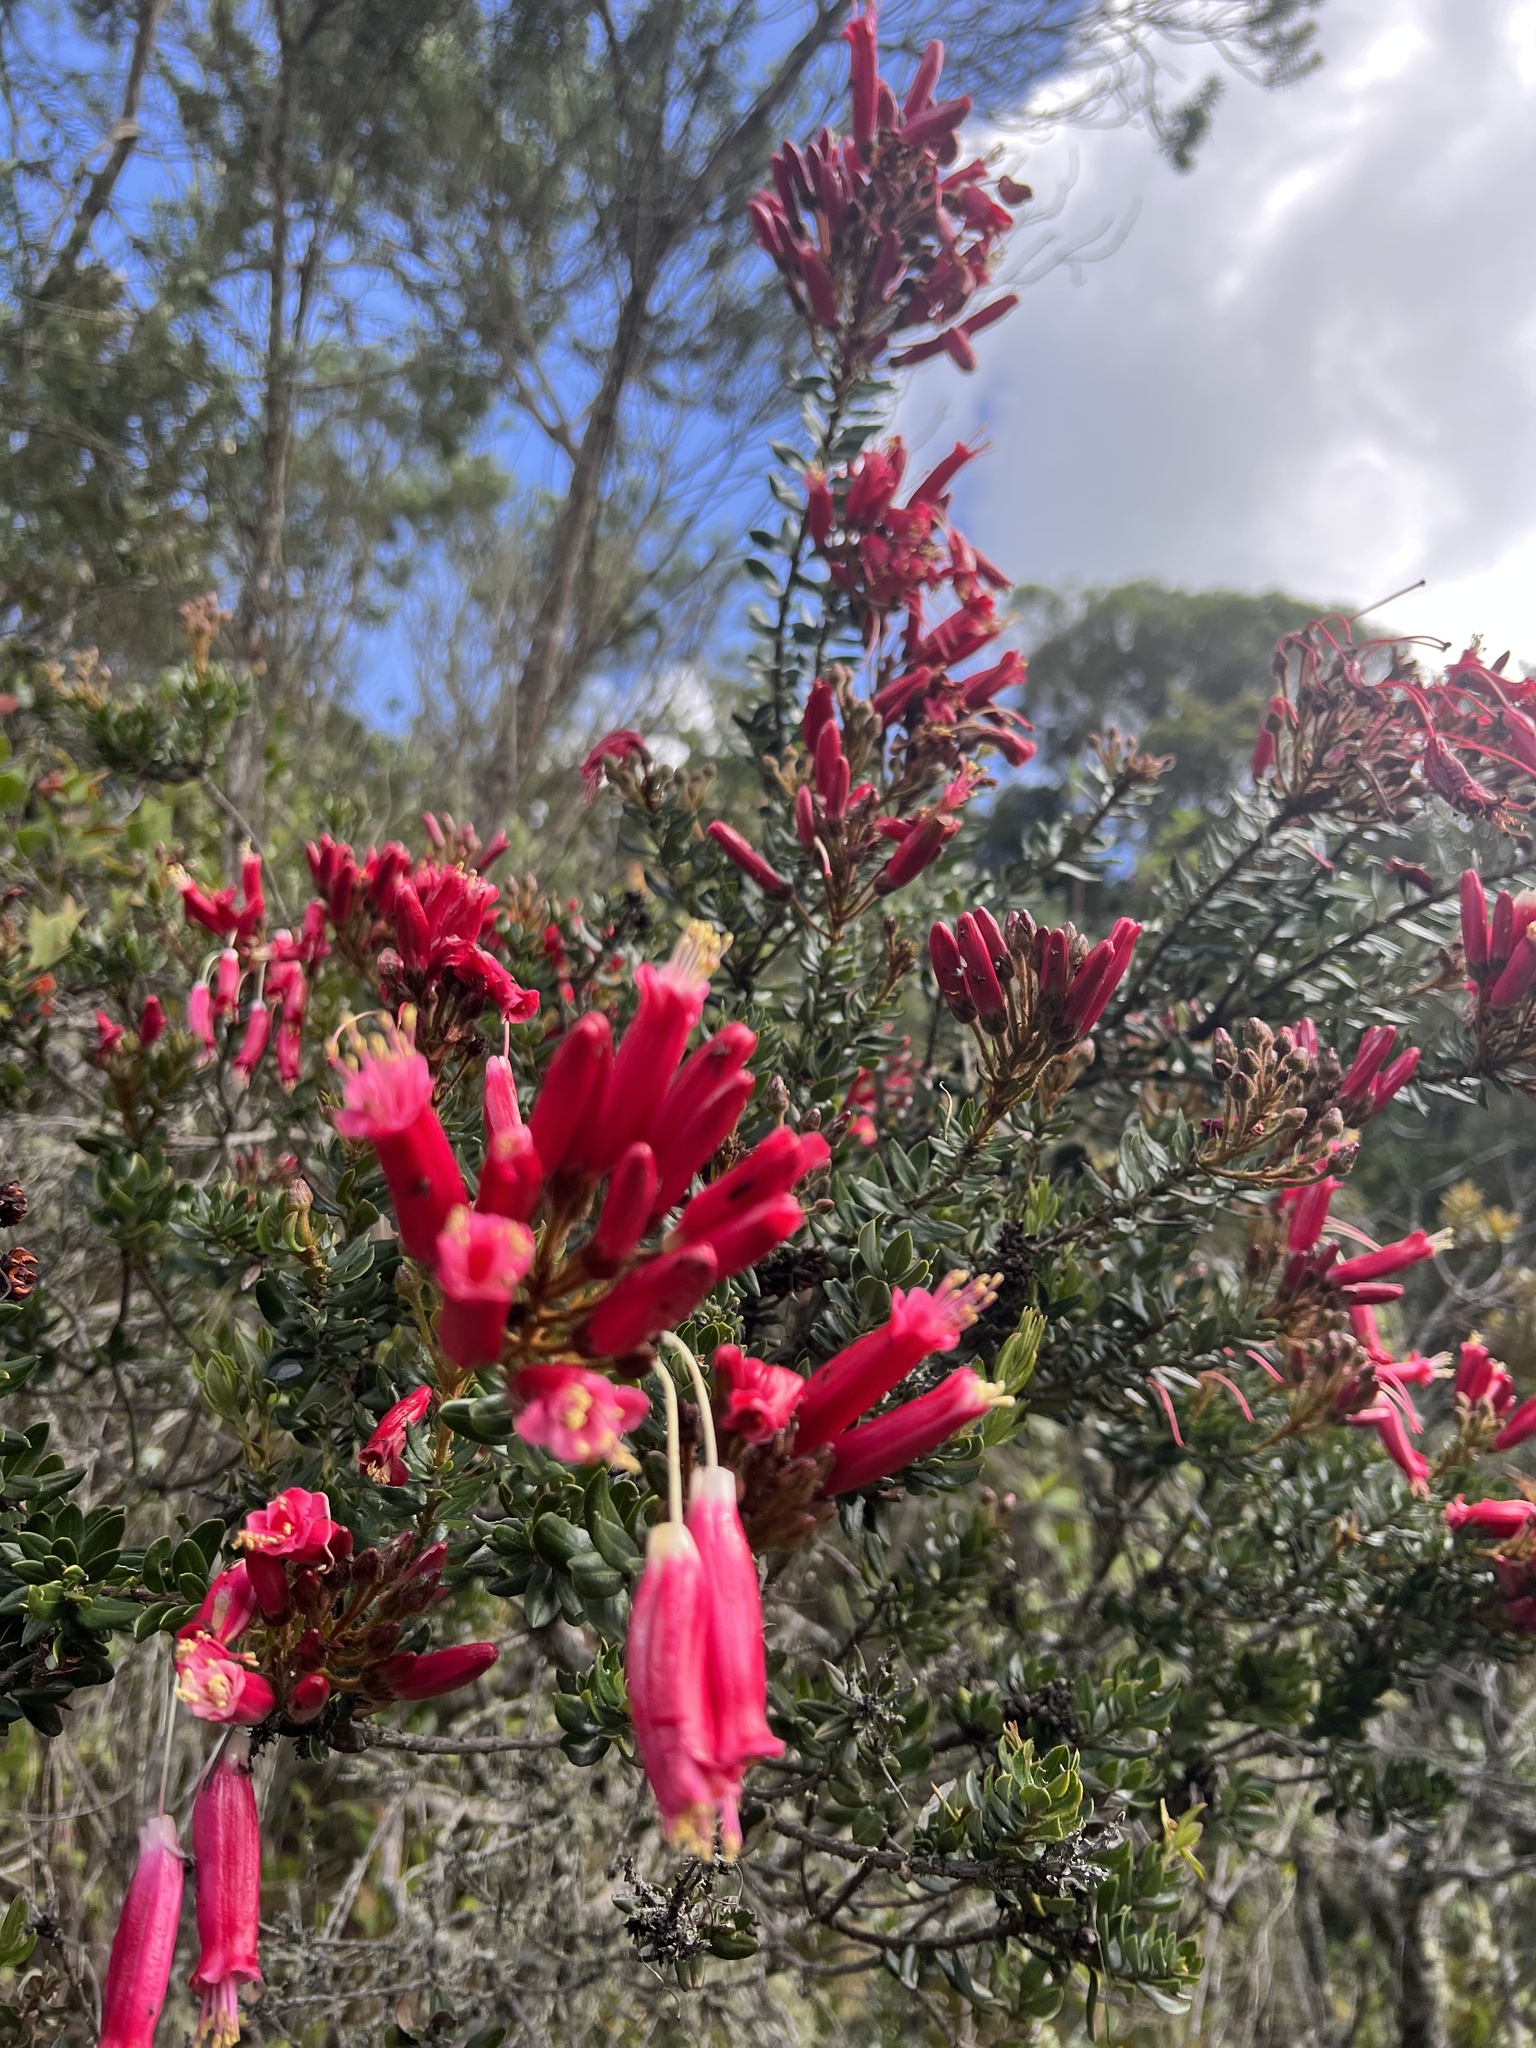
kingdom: Plantae
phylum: Tracheophyta
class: Magnoliopsida
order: Ericales
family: Ericaceae
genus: Bejaria
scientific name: Bejaria resinosa
